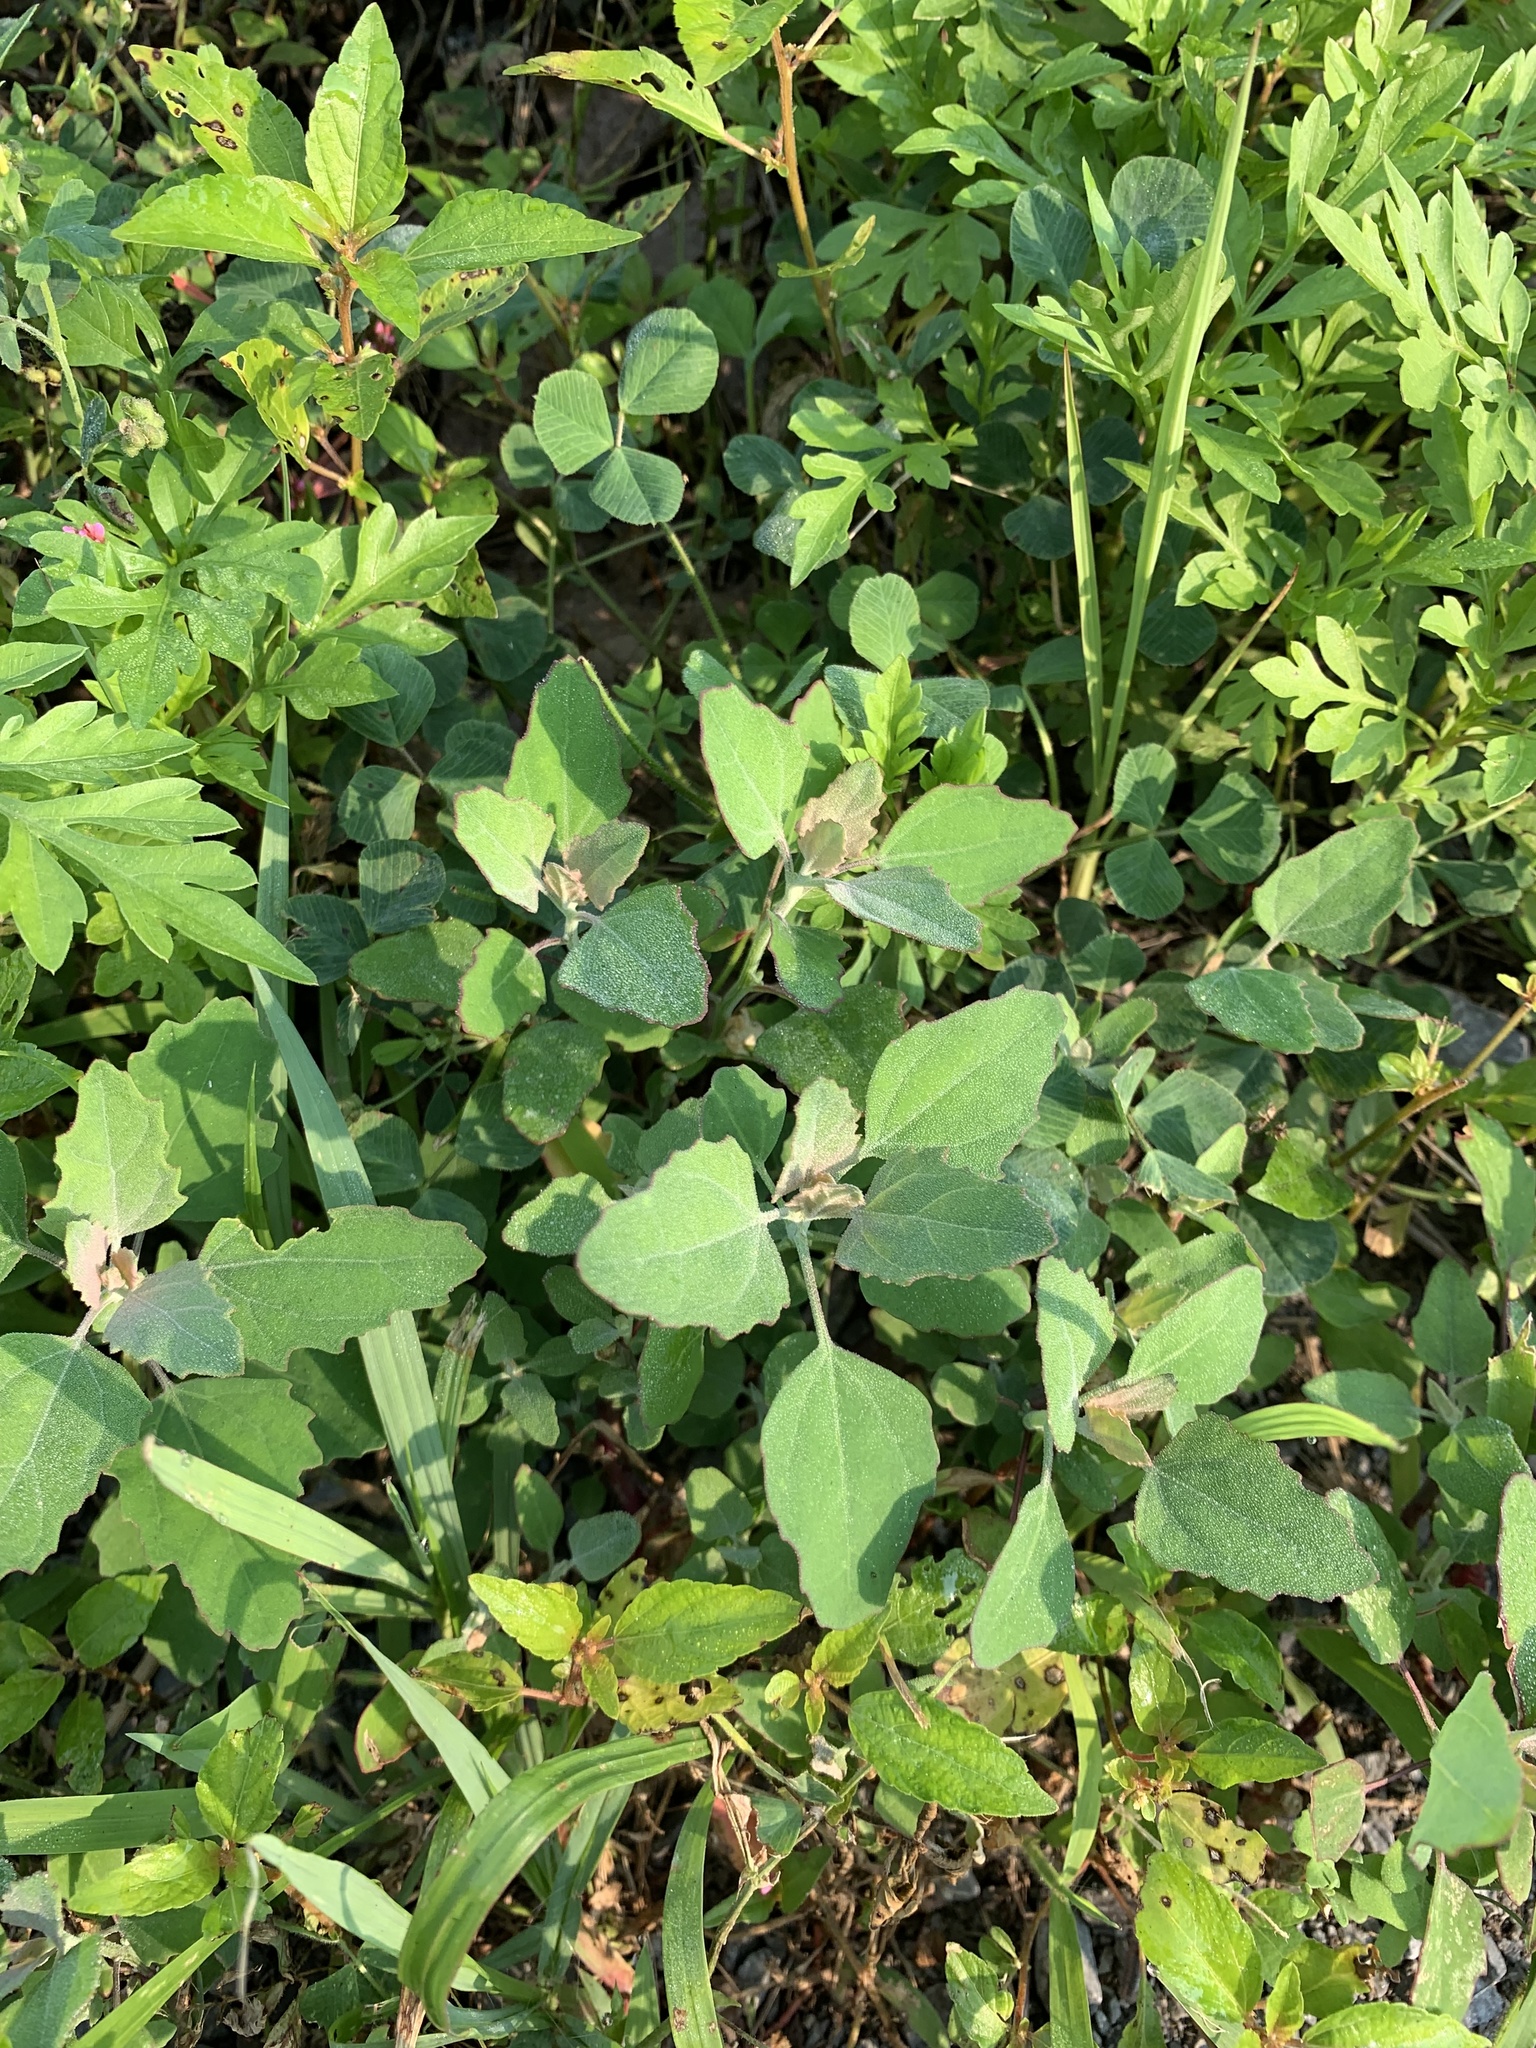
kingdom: Plantae
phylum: Tracheophyta
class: Magnoliopsida
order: Caryophyllales
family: Amaranthaceae
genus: Chenopodium
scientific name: Chenopodium album
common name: Fat-hen
